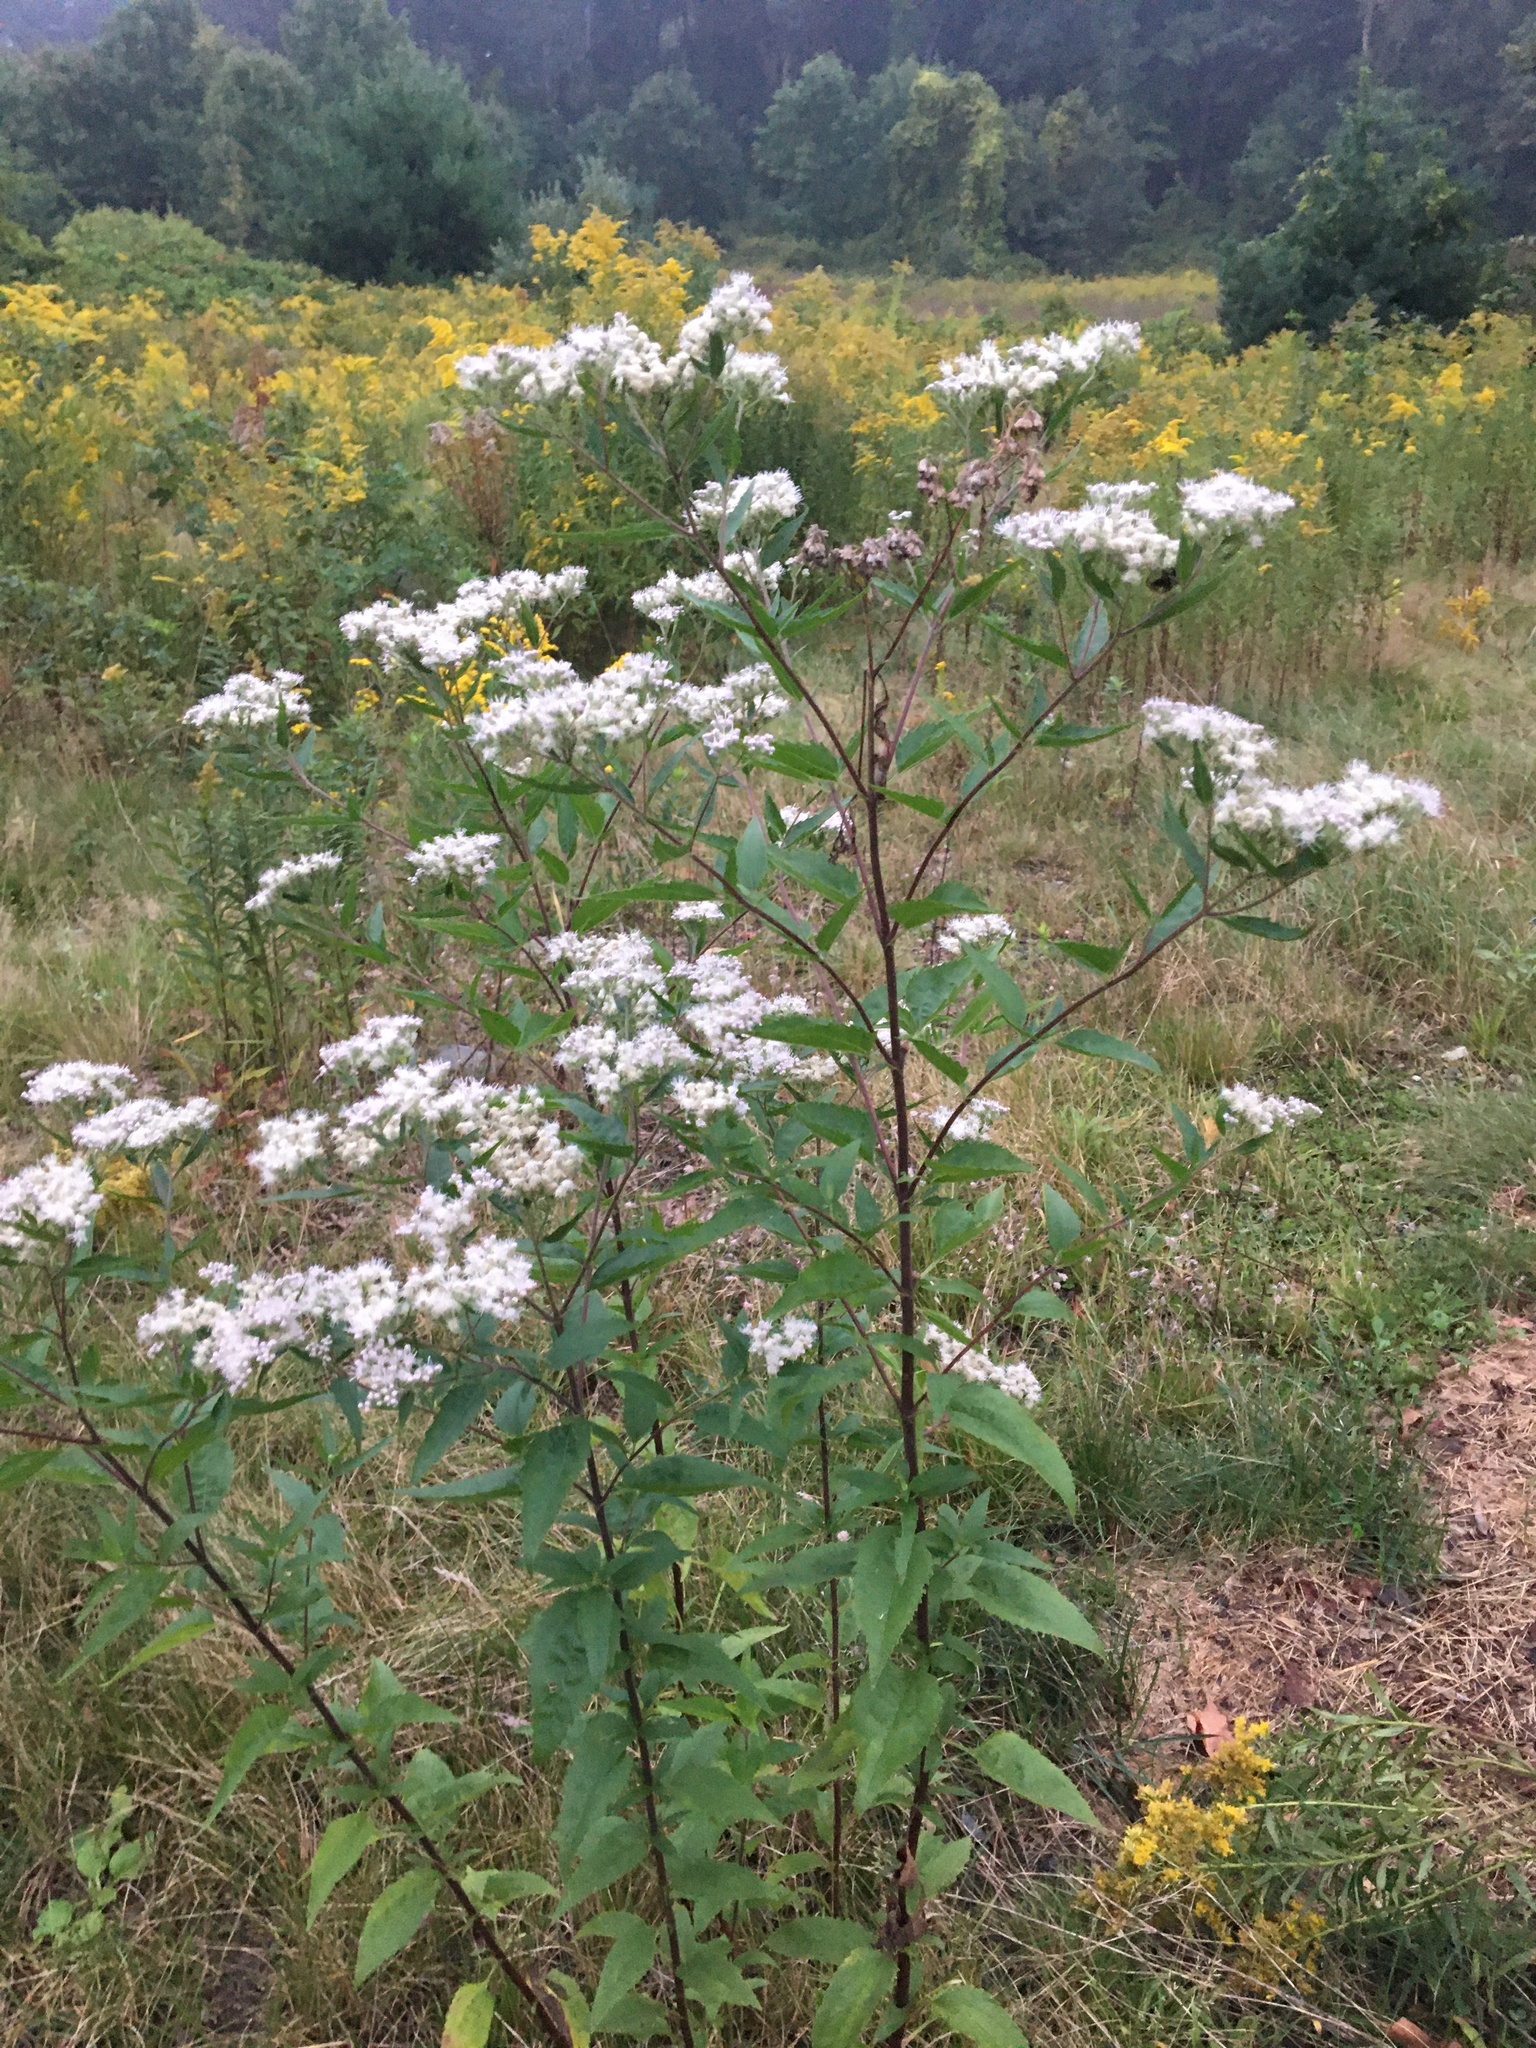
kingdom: Plantae
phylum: Tracheophyta
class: Magnoliopsida
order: Asterales
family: Asteraceae
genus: Eupatorium
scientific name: Eupatorium serotinum
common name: Late boneset
